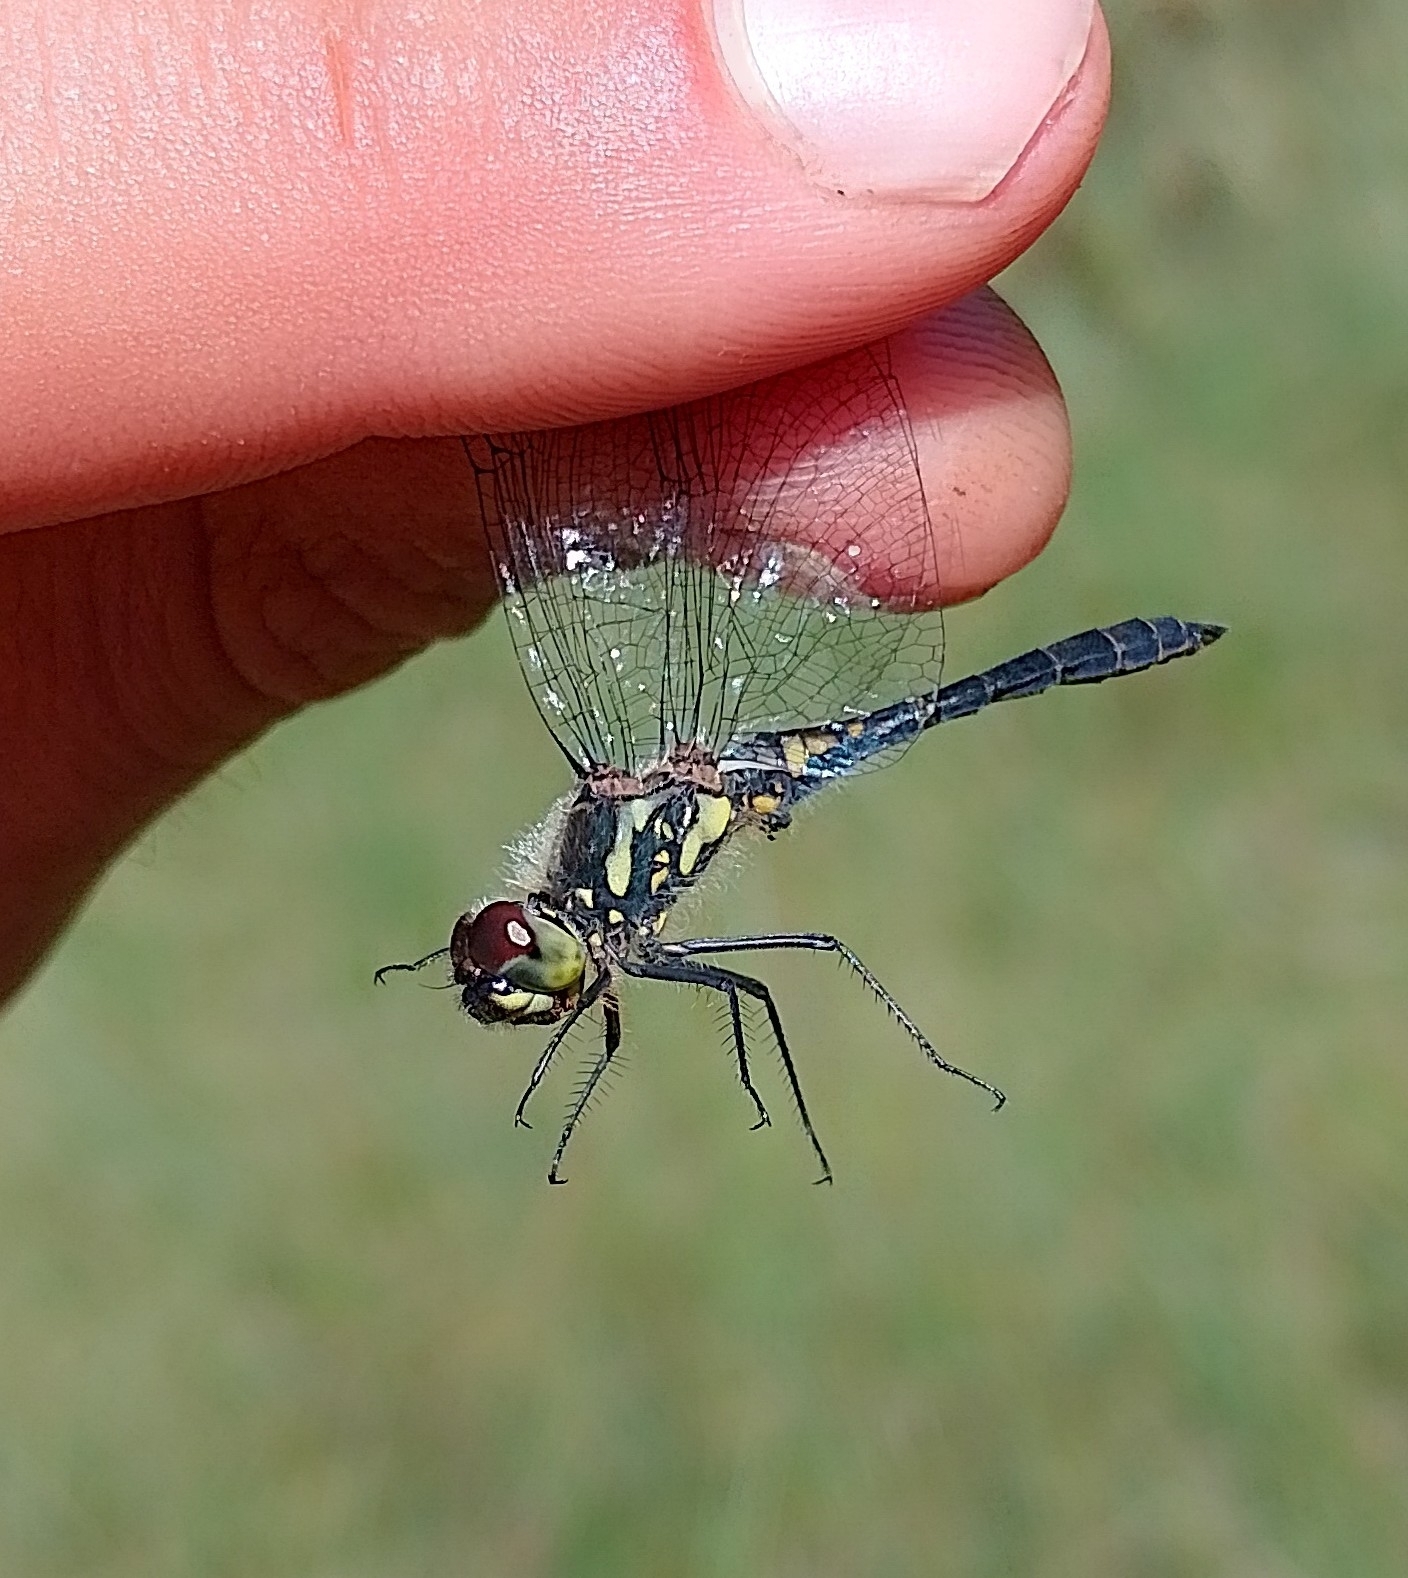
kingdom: Animalia
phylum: Arthropoda
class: Insecta
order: Odonata
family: Libellulidae
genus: Sympetrum
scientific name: Sympetrum danae
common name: Black darter
